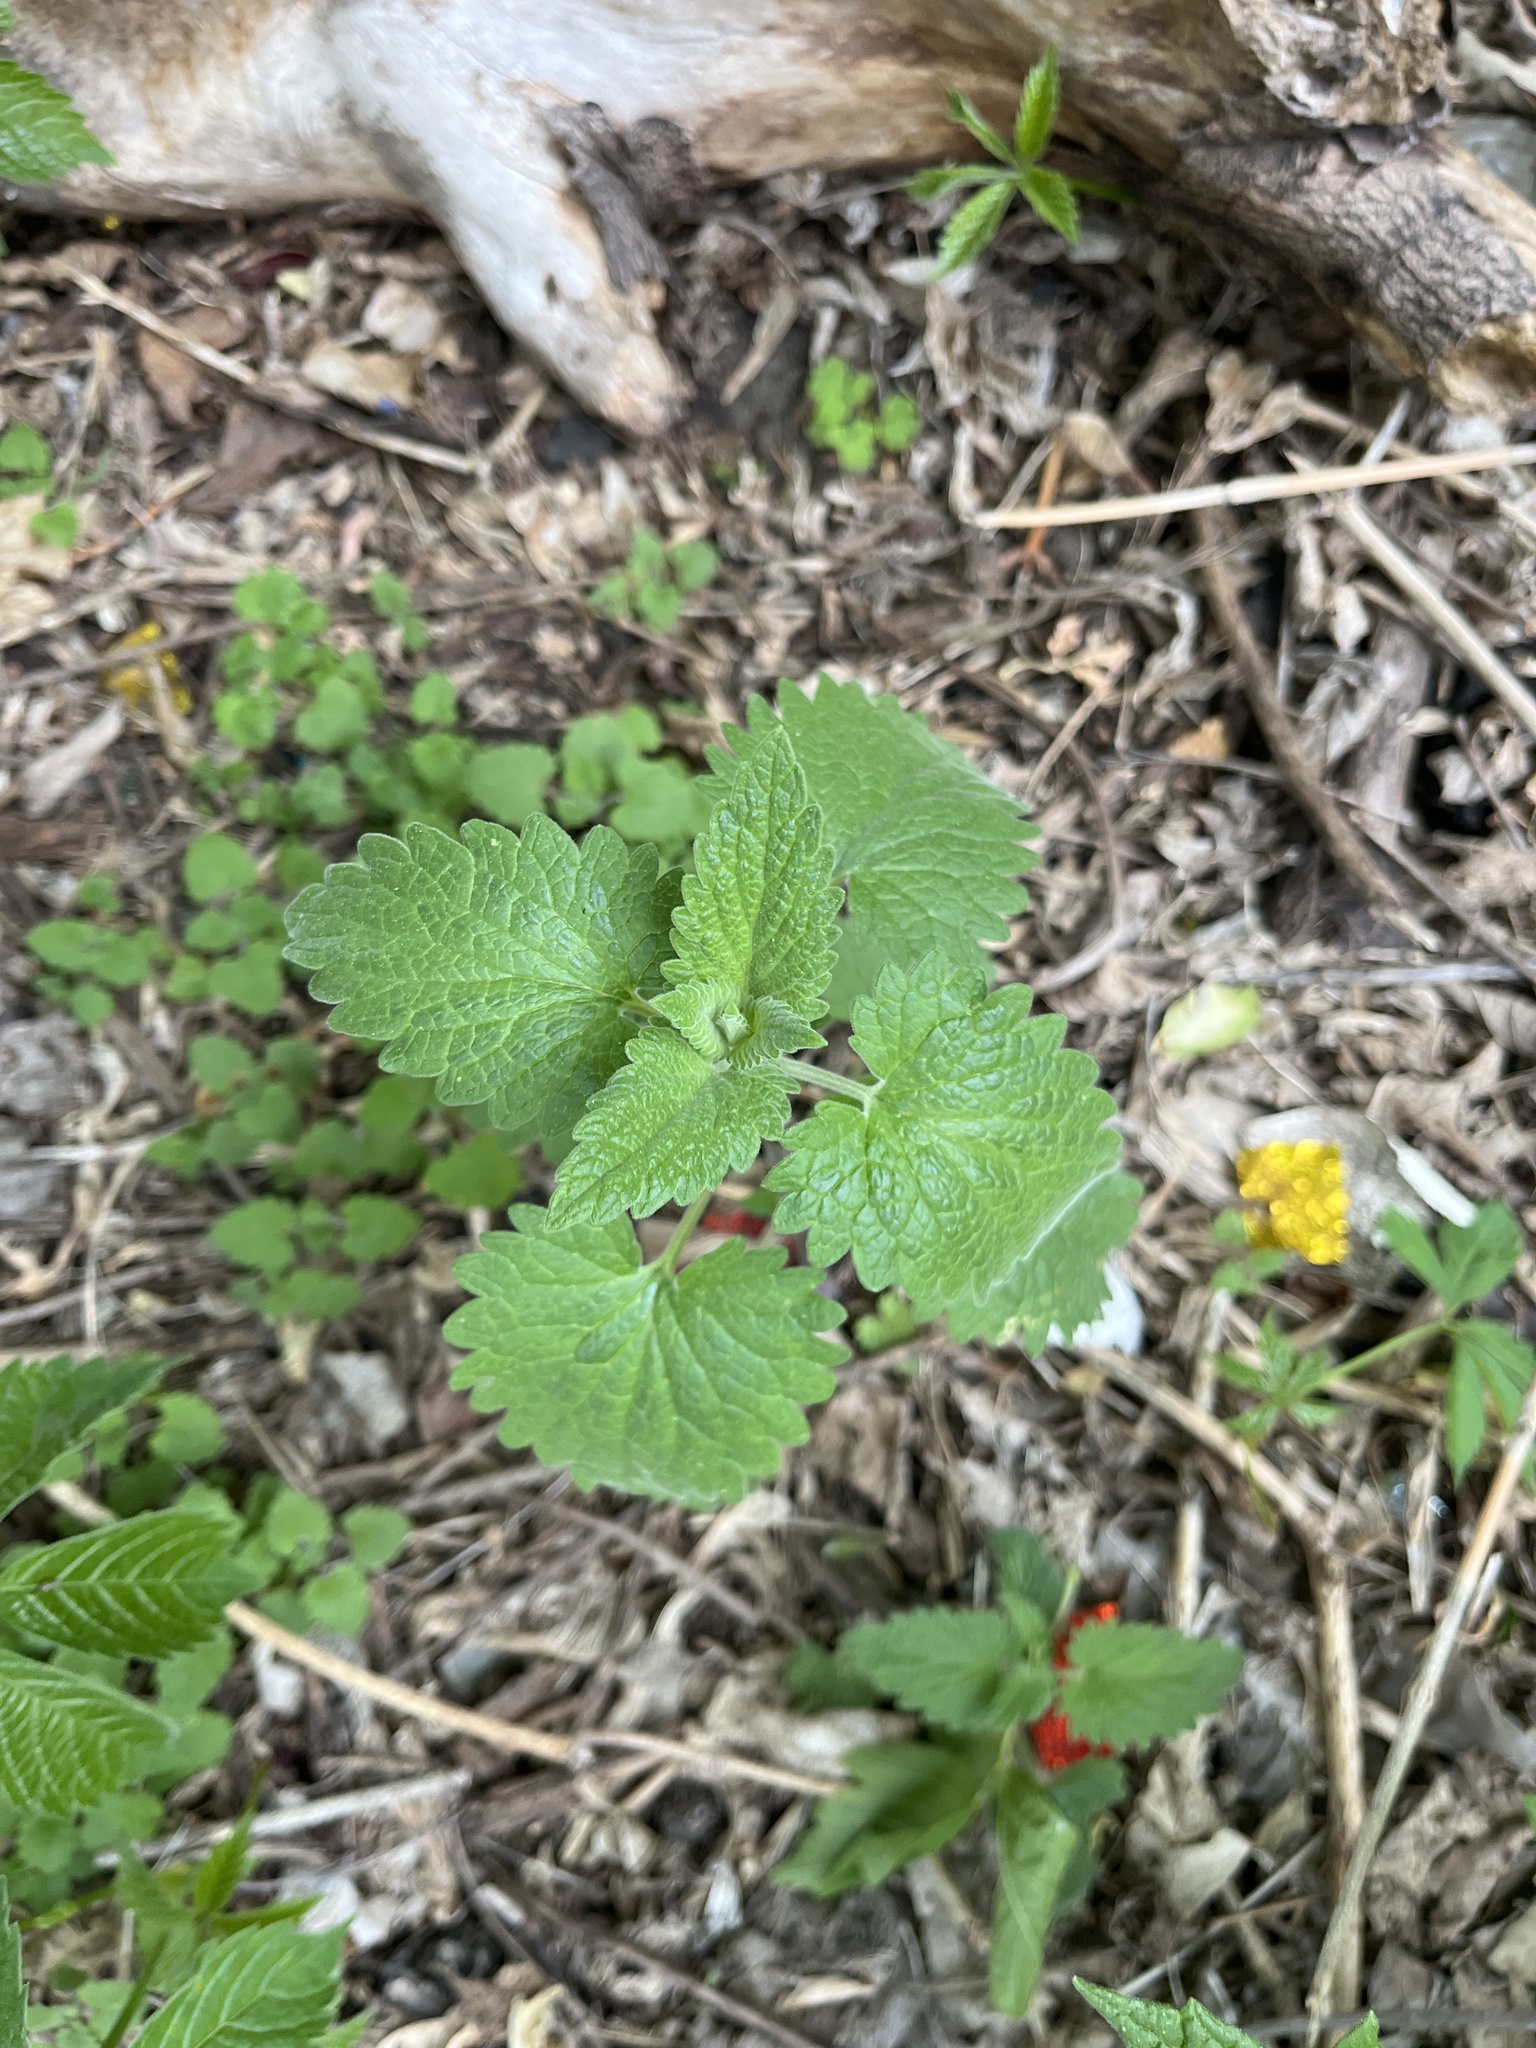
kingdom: Plantae
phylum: Tracheophyta
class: Magnoliopsida
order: Lamiales
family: Lamiaceae
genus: Nepeta
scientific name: Nepeta cataria
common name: Catnip
